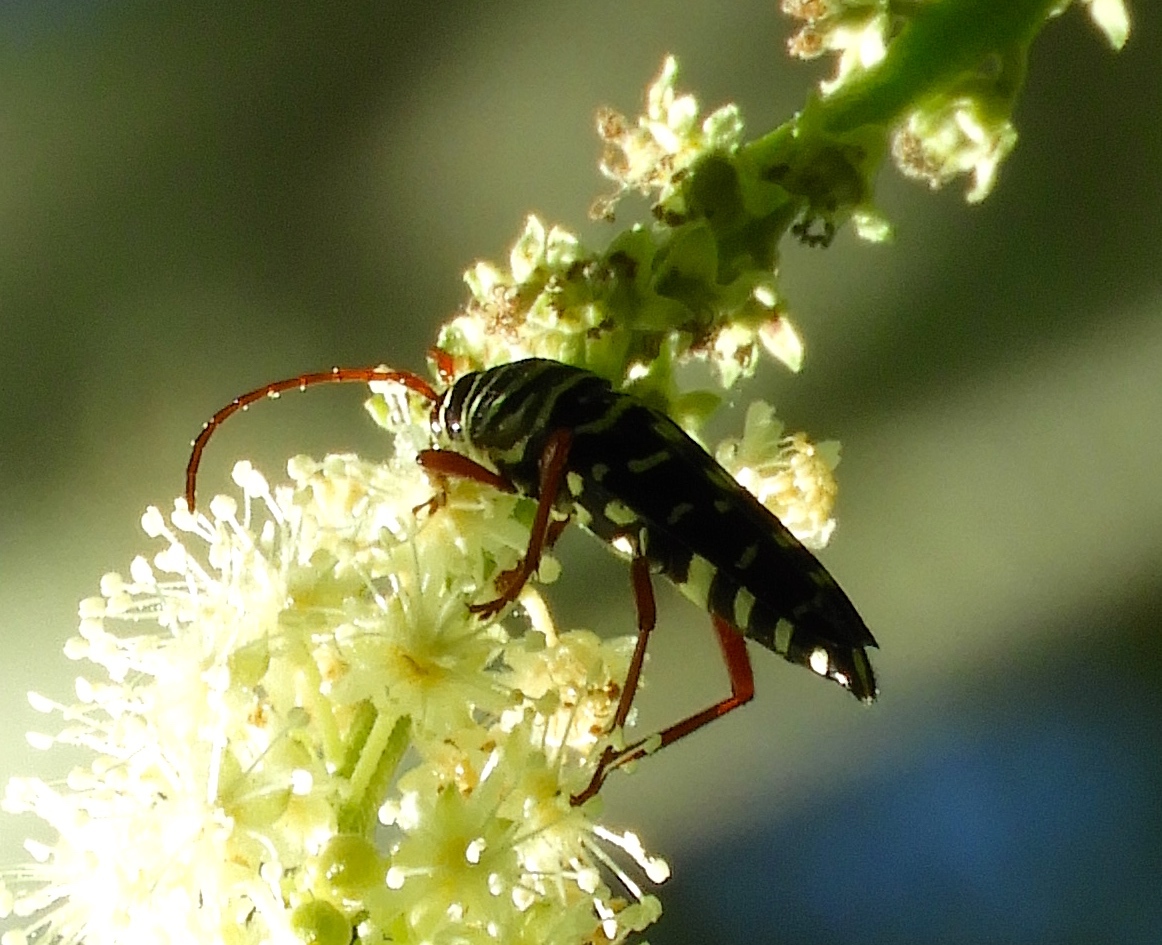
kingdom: Animalia
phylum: Arthropoda
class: Insecta
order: Coleoptera
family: Cerambycidae
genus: Placosternus
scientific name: Placosternus difficilis
